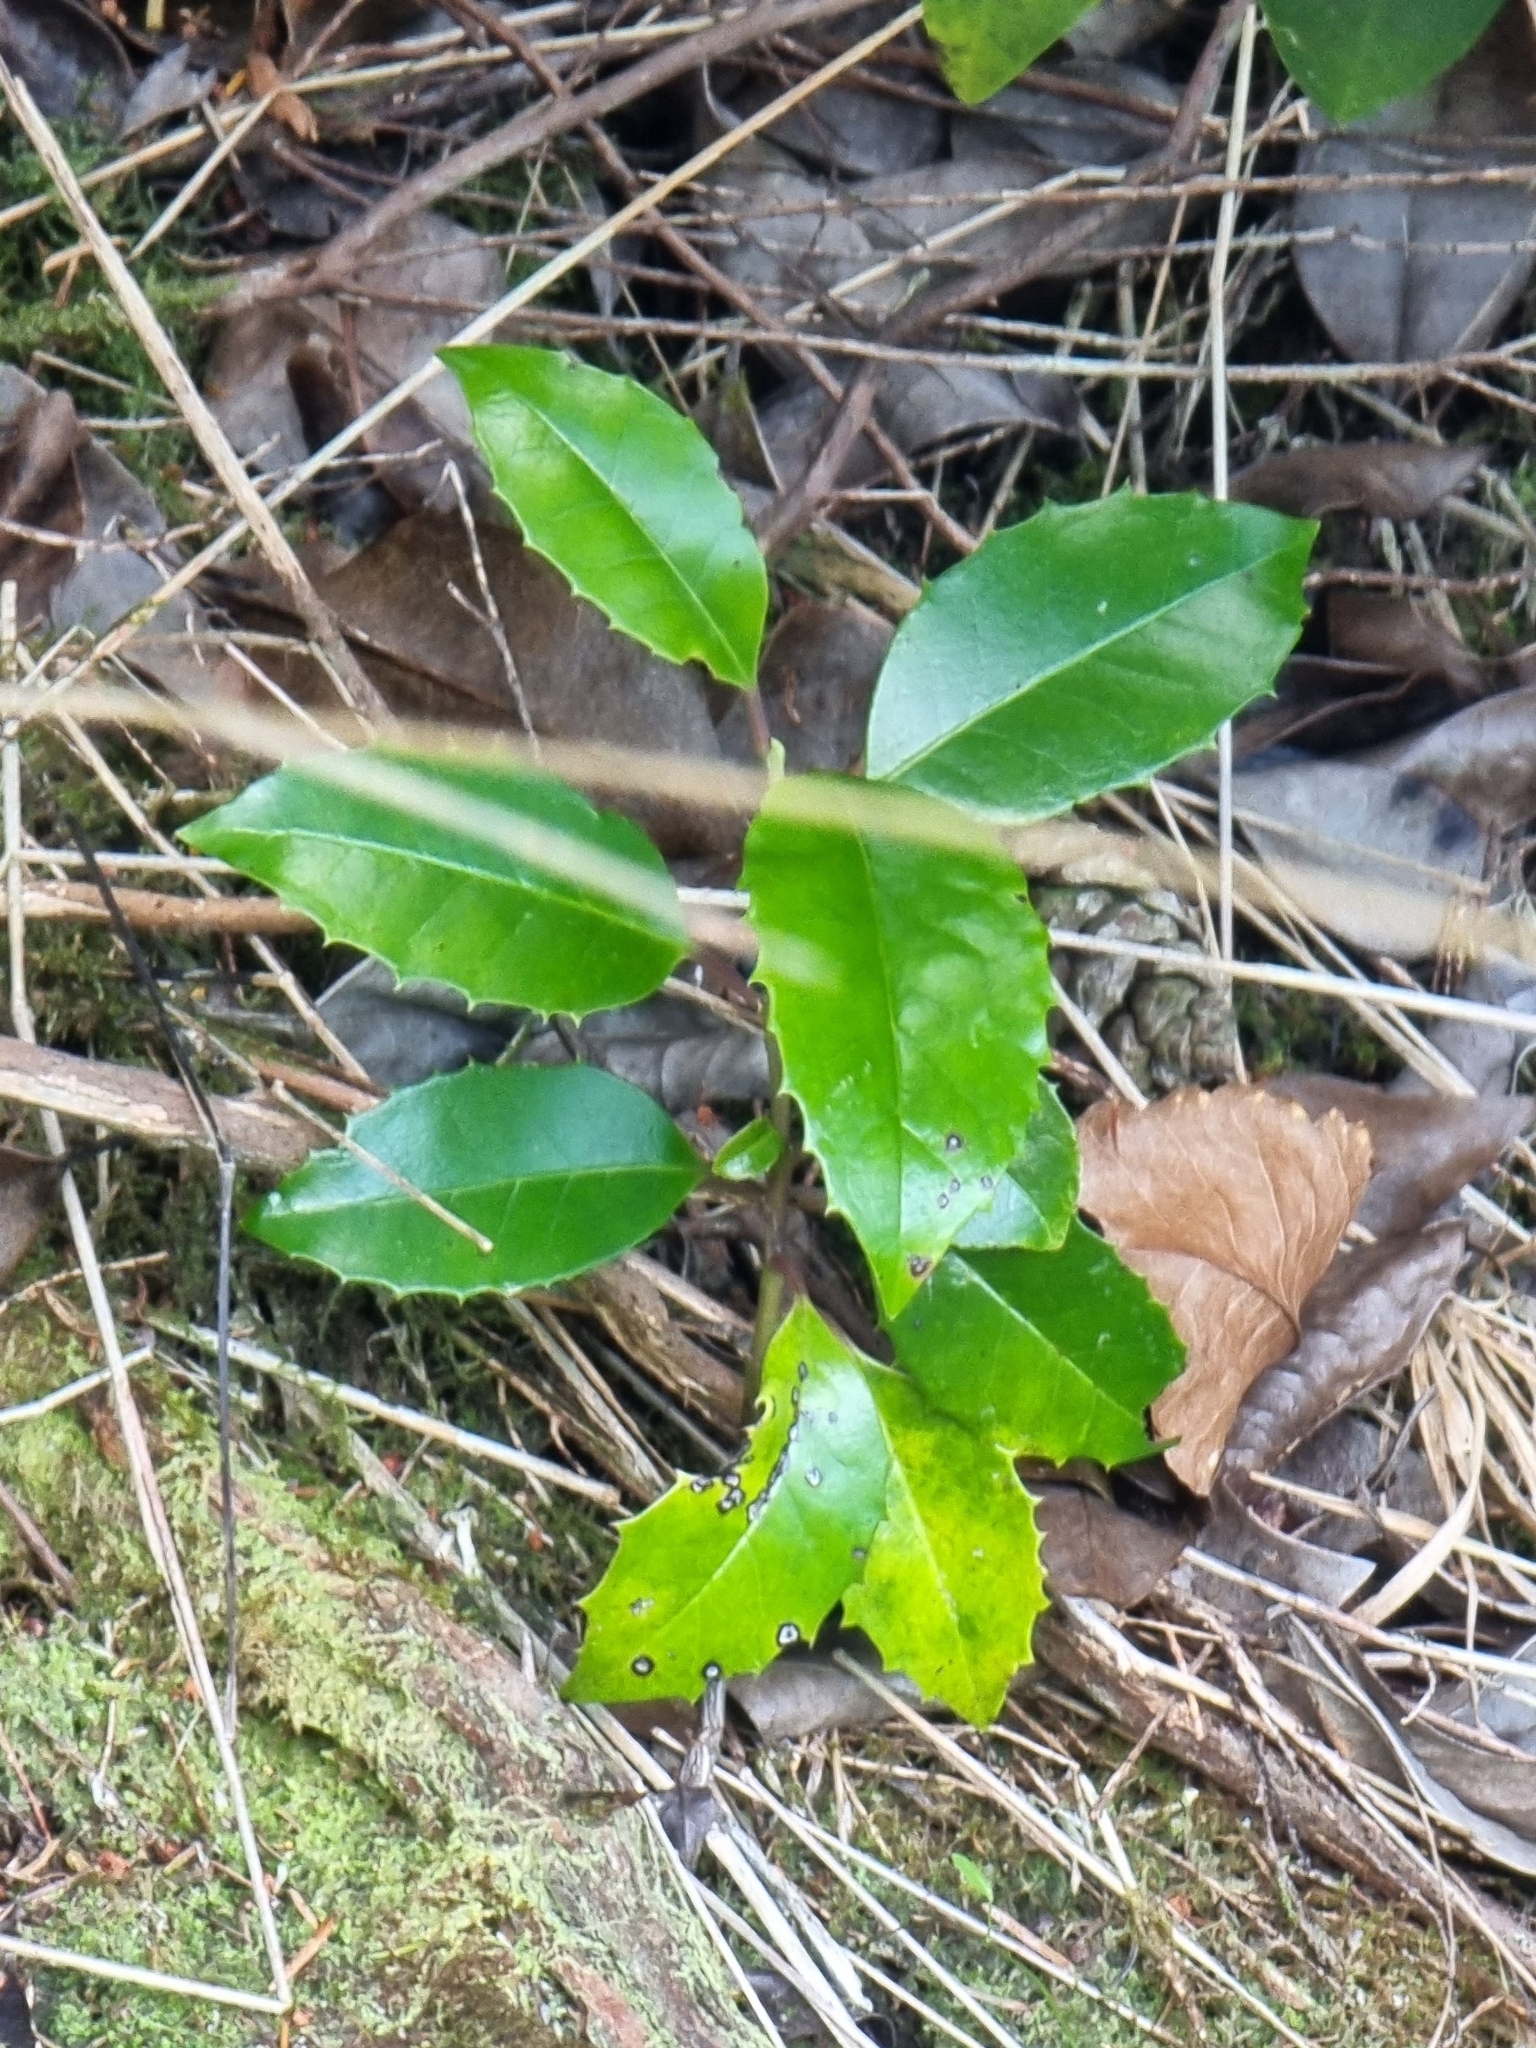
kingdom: Plantae
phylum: Tracheophyta
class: Magnoliopsida
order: Aquifoliales
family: Aquifoliaceae
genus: Ilex
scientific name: Ilex canariensis
